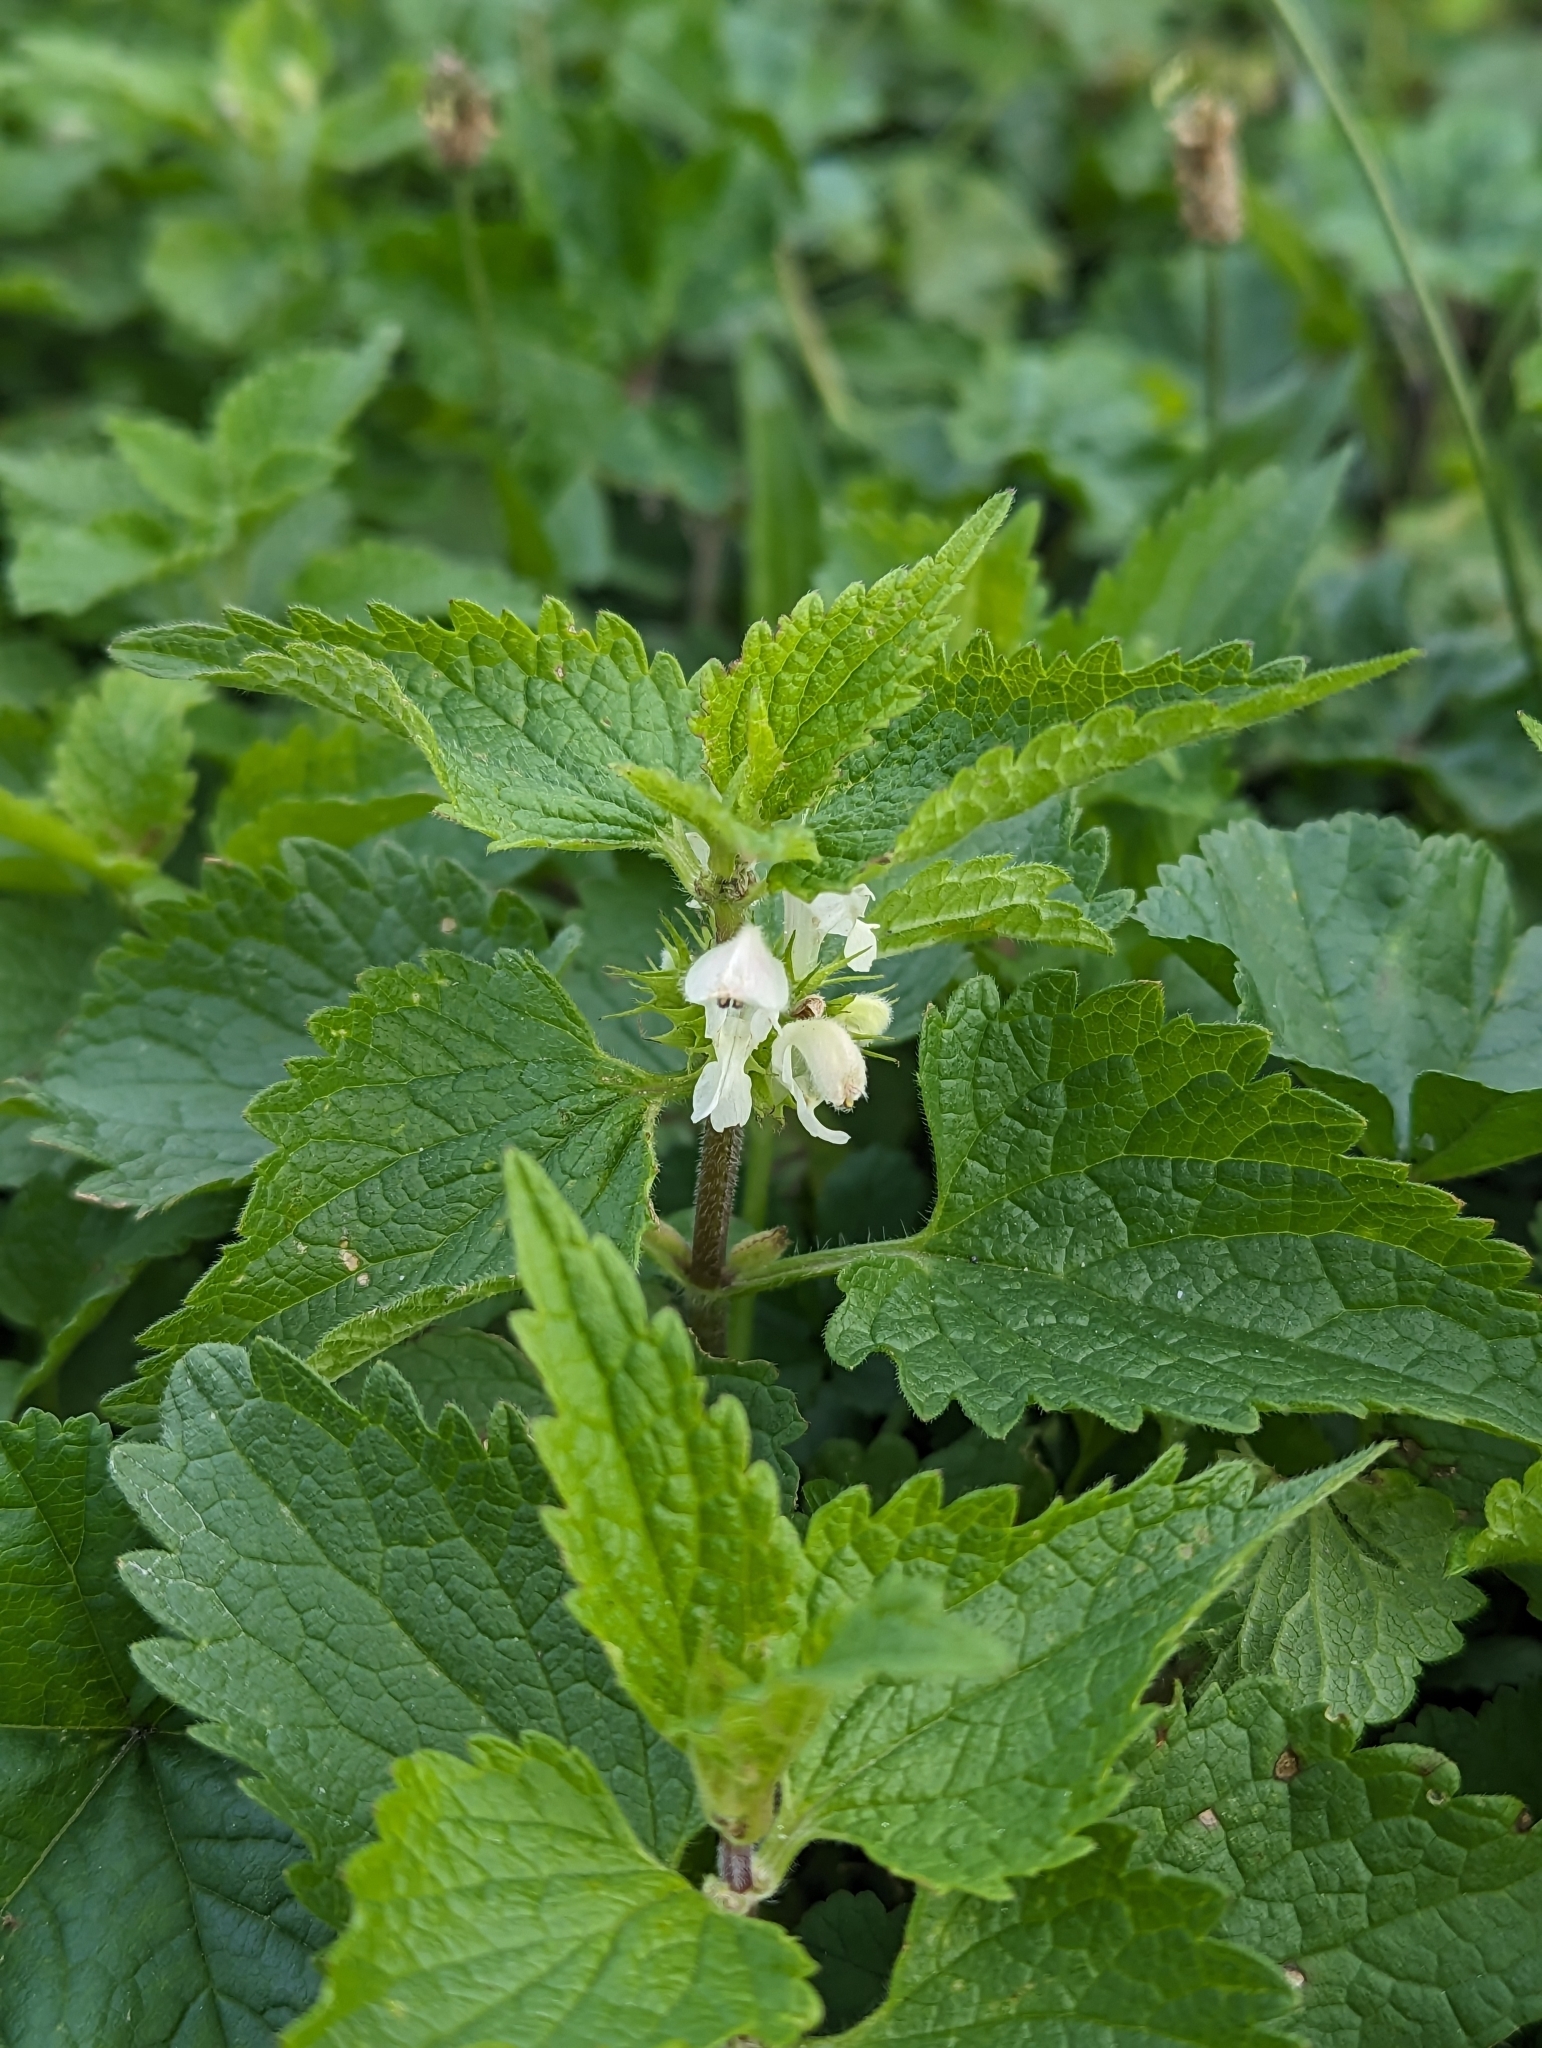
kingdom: Plantae
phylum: Tracheophyta
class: Magnoliopsida
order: Lamiales
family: Lamiaceae
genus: Lamium
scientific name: Lamium album
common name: White dead-nettle
